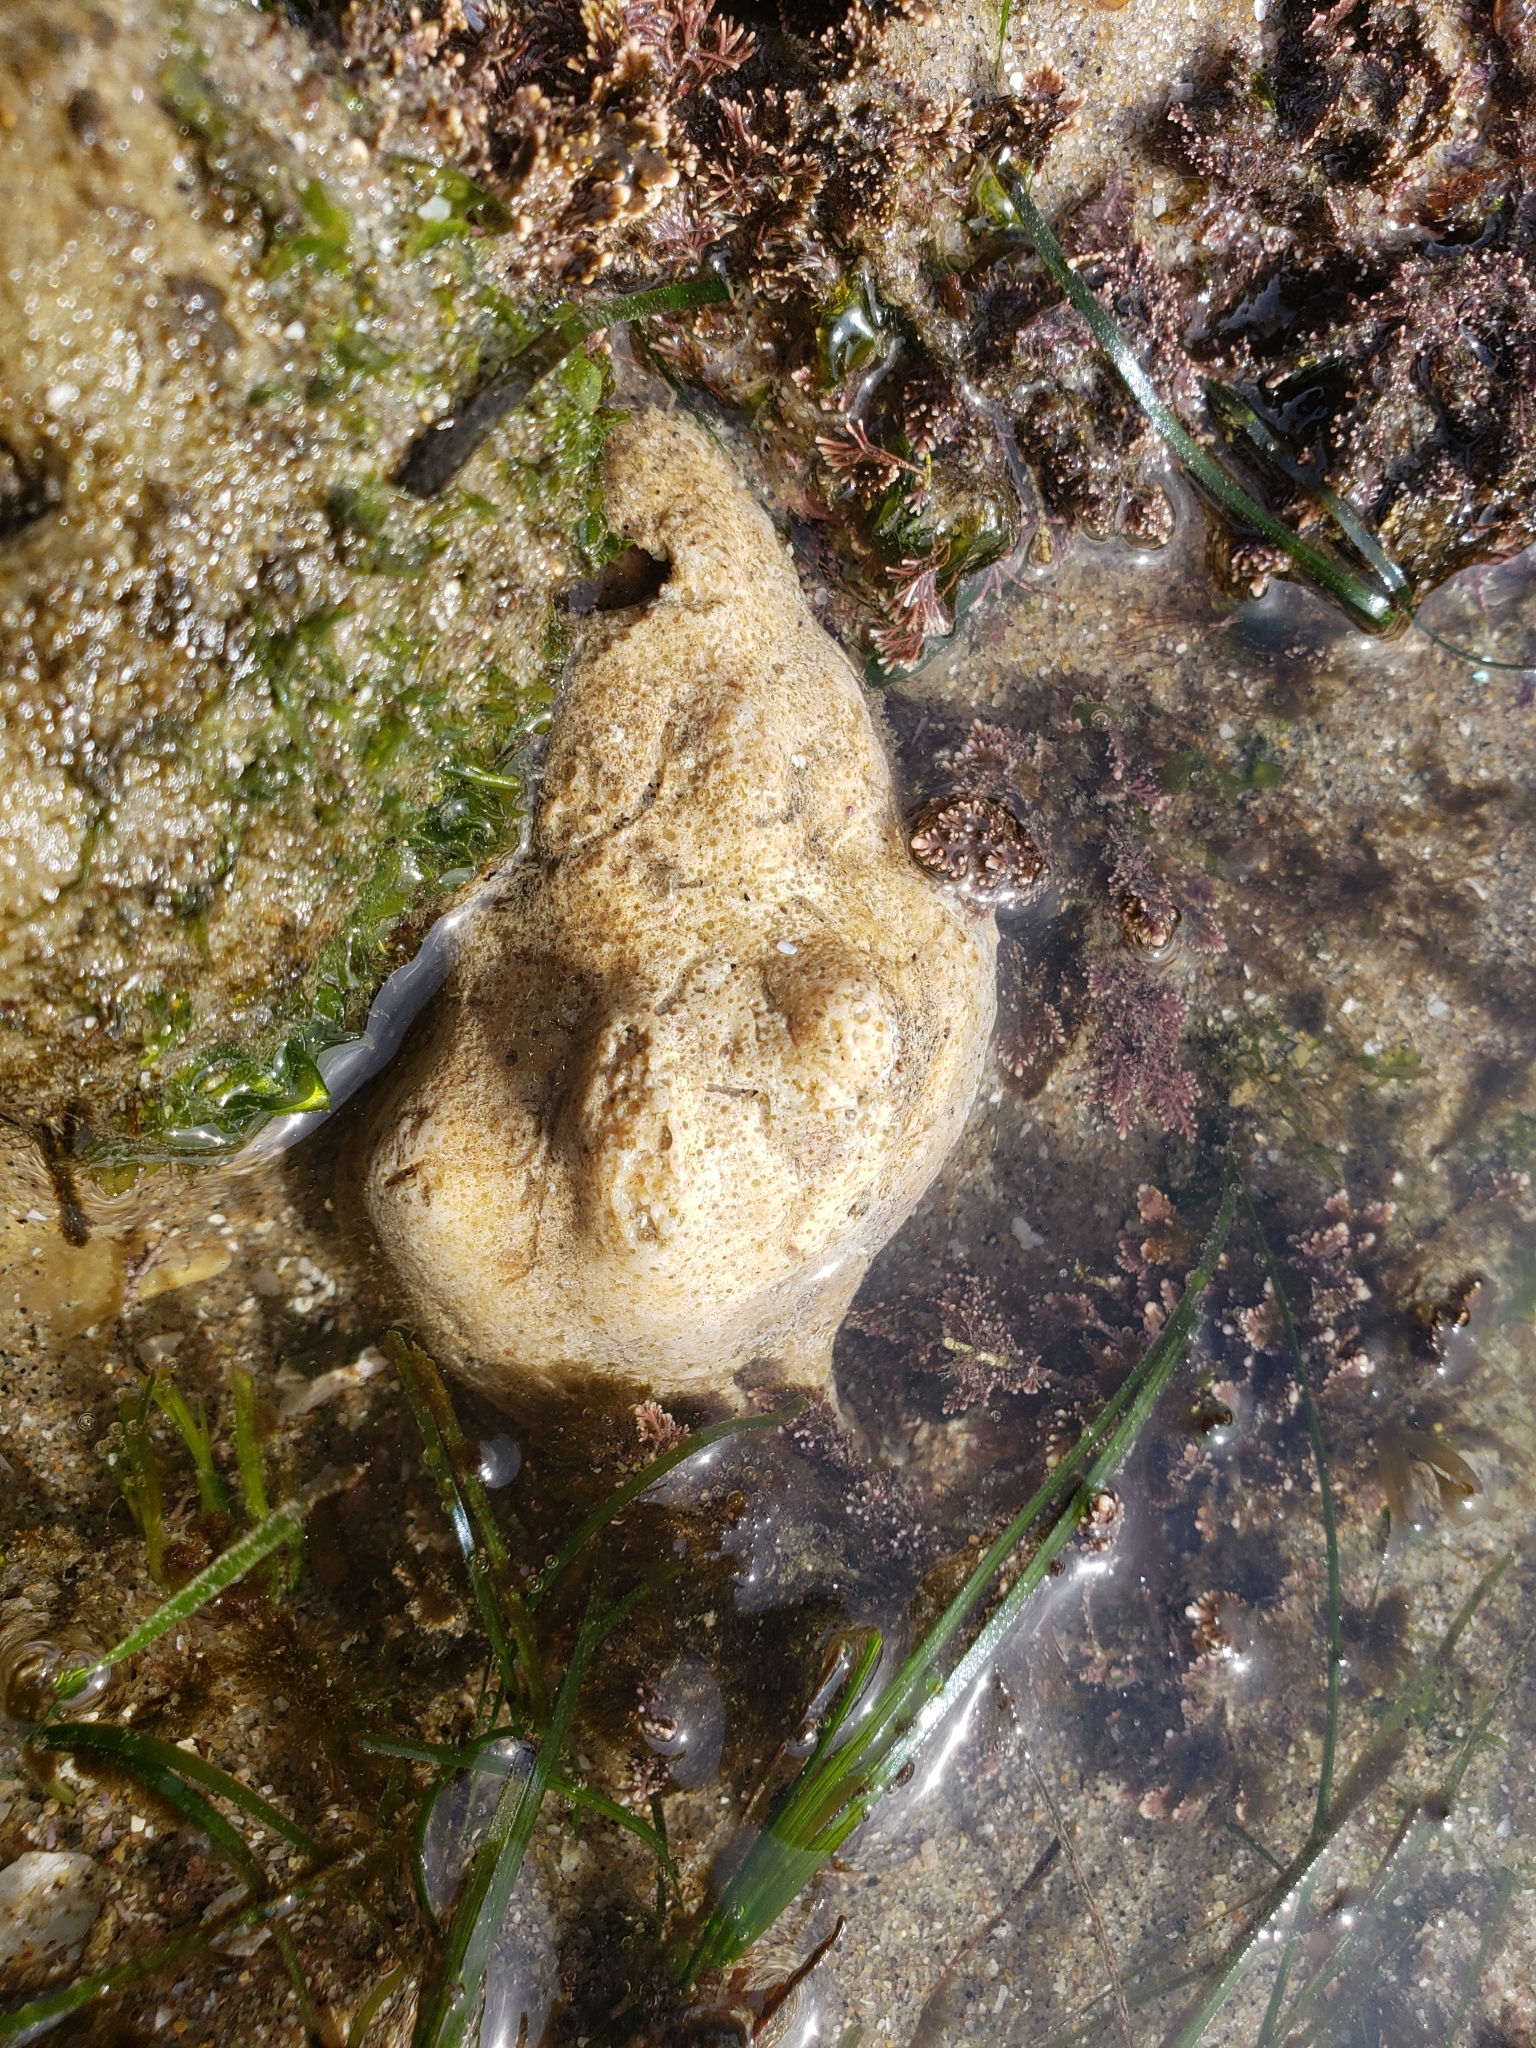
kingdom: Animalia
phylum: Mollusca
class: Gastropoda
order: Neogastropoda
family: Austrosiphonidae
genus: Kelletia
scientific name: Kelletia kelletii
